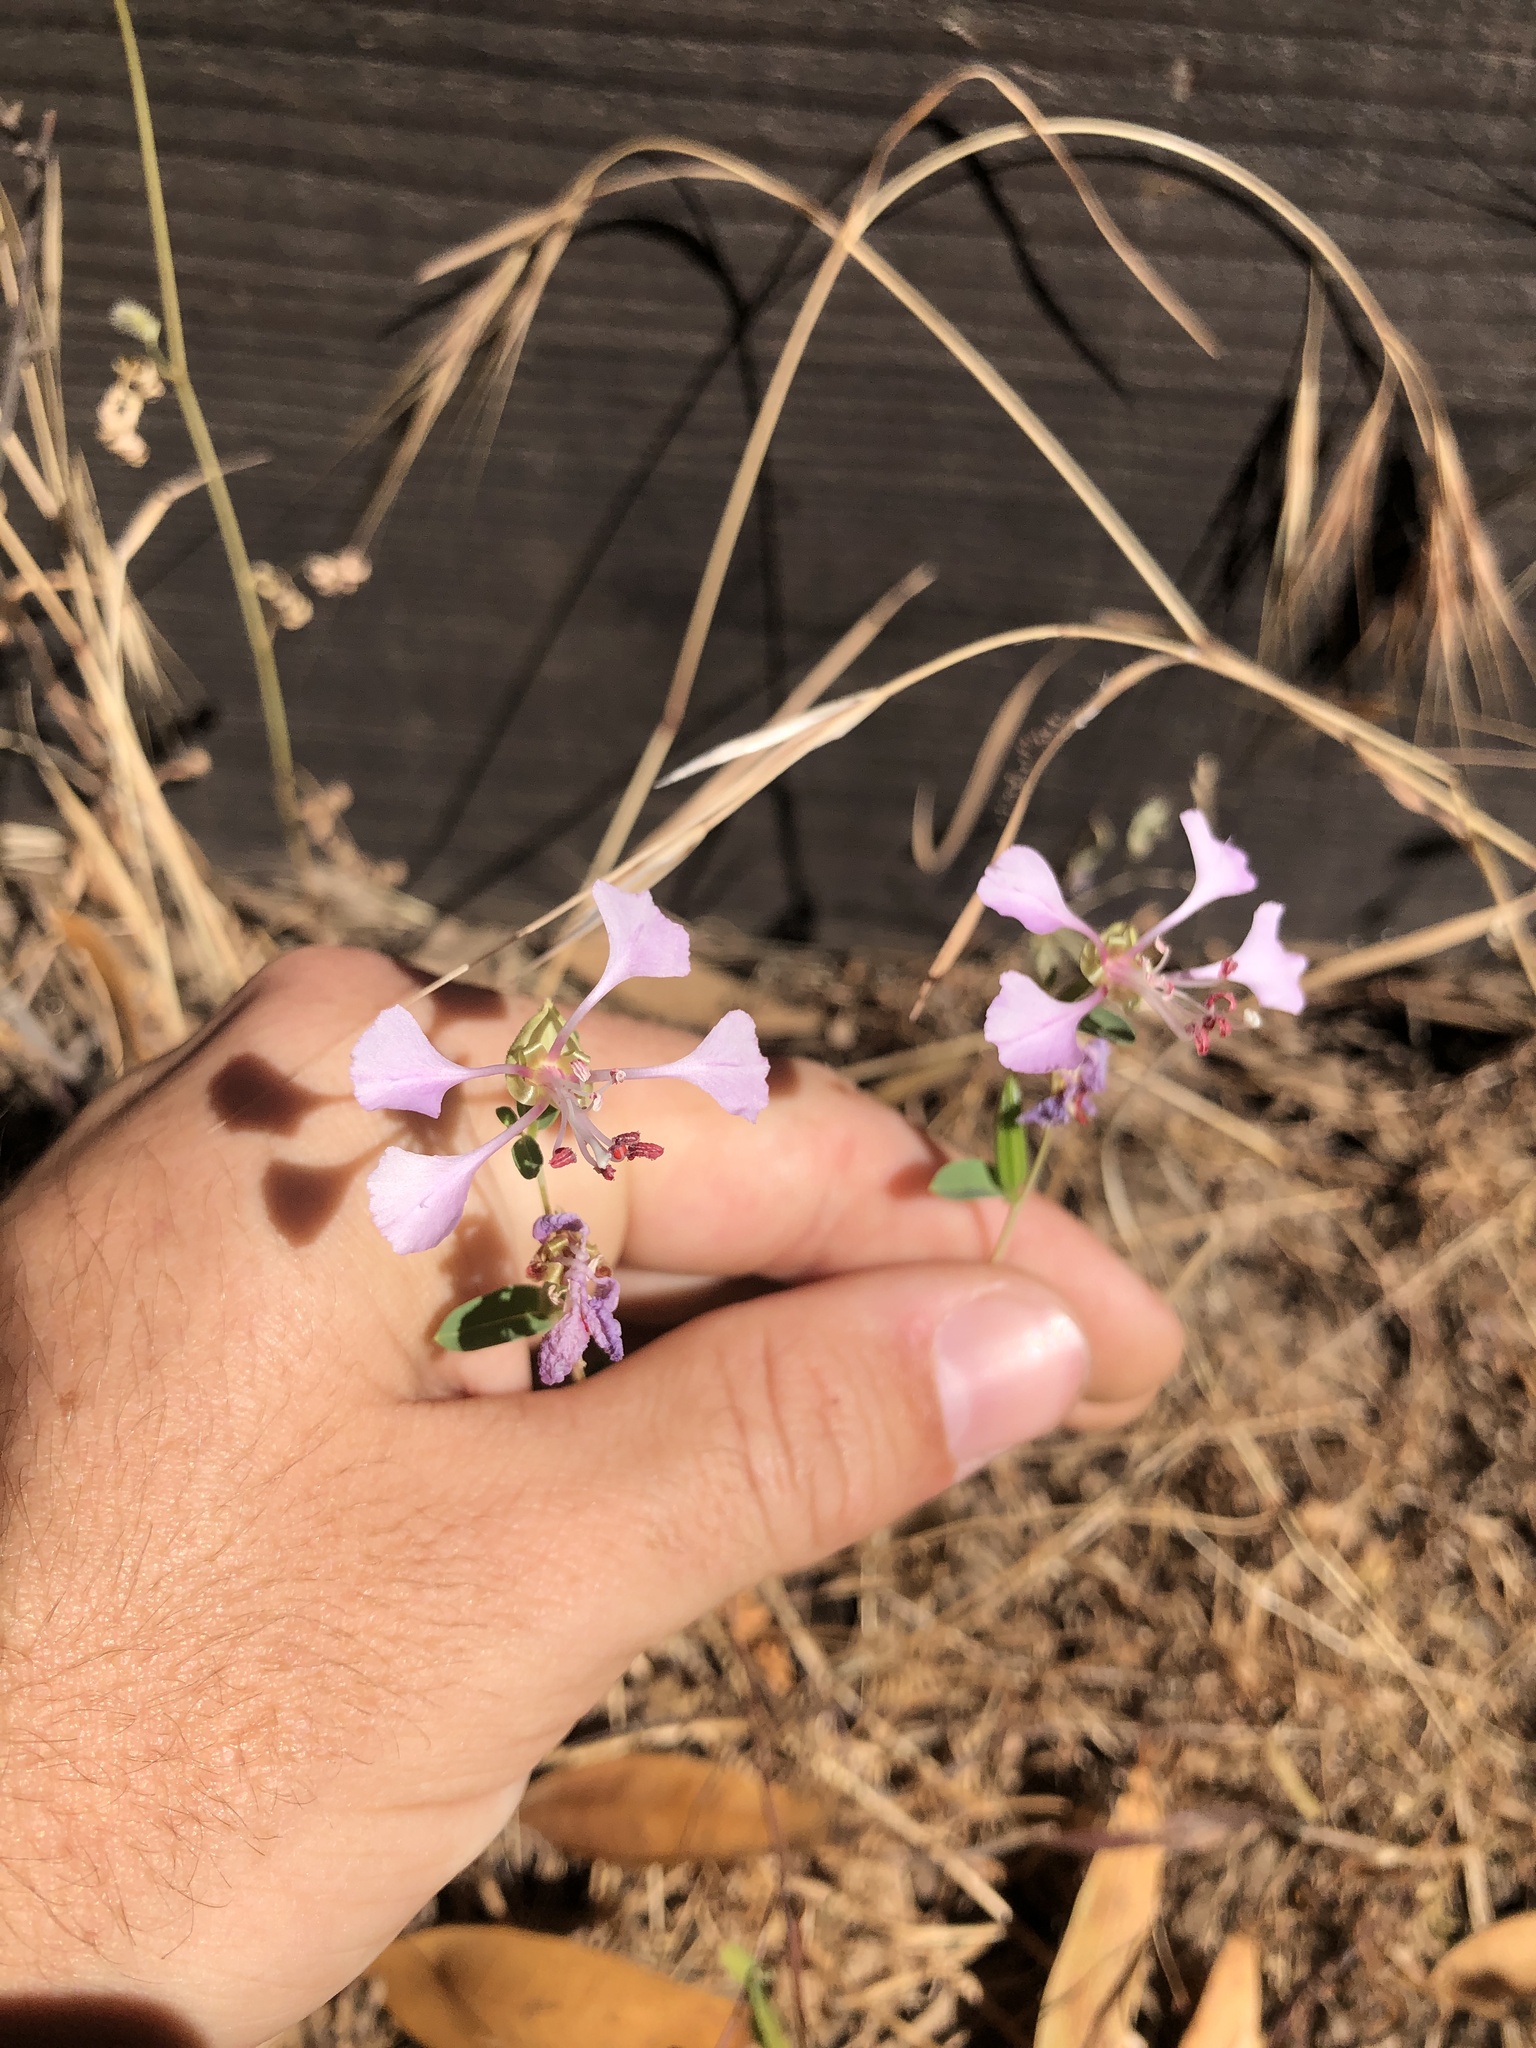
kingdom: Plantae
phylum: Tracheophyta
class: Magnoliopsida
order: Myrtales
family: Onagraceae
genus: Clarkia
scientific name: Clarkia unguiculata
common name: Clarkia
